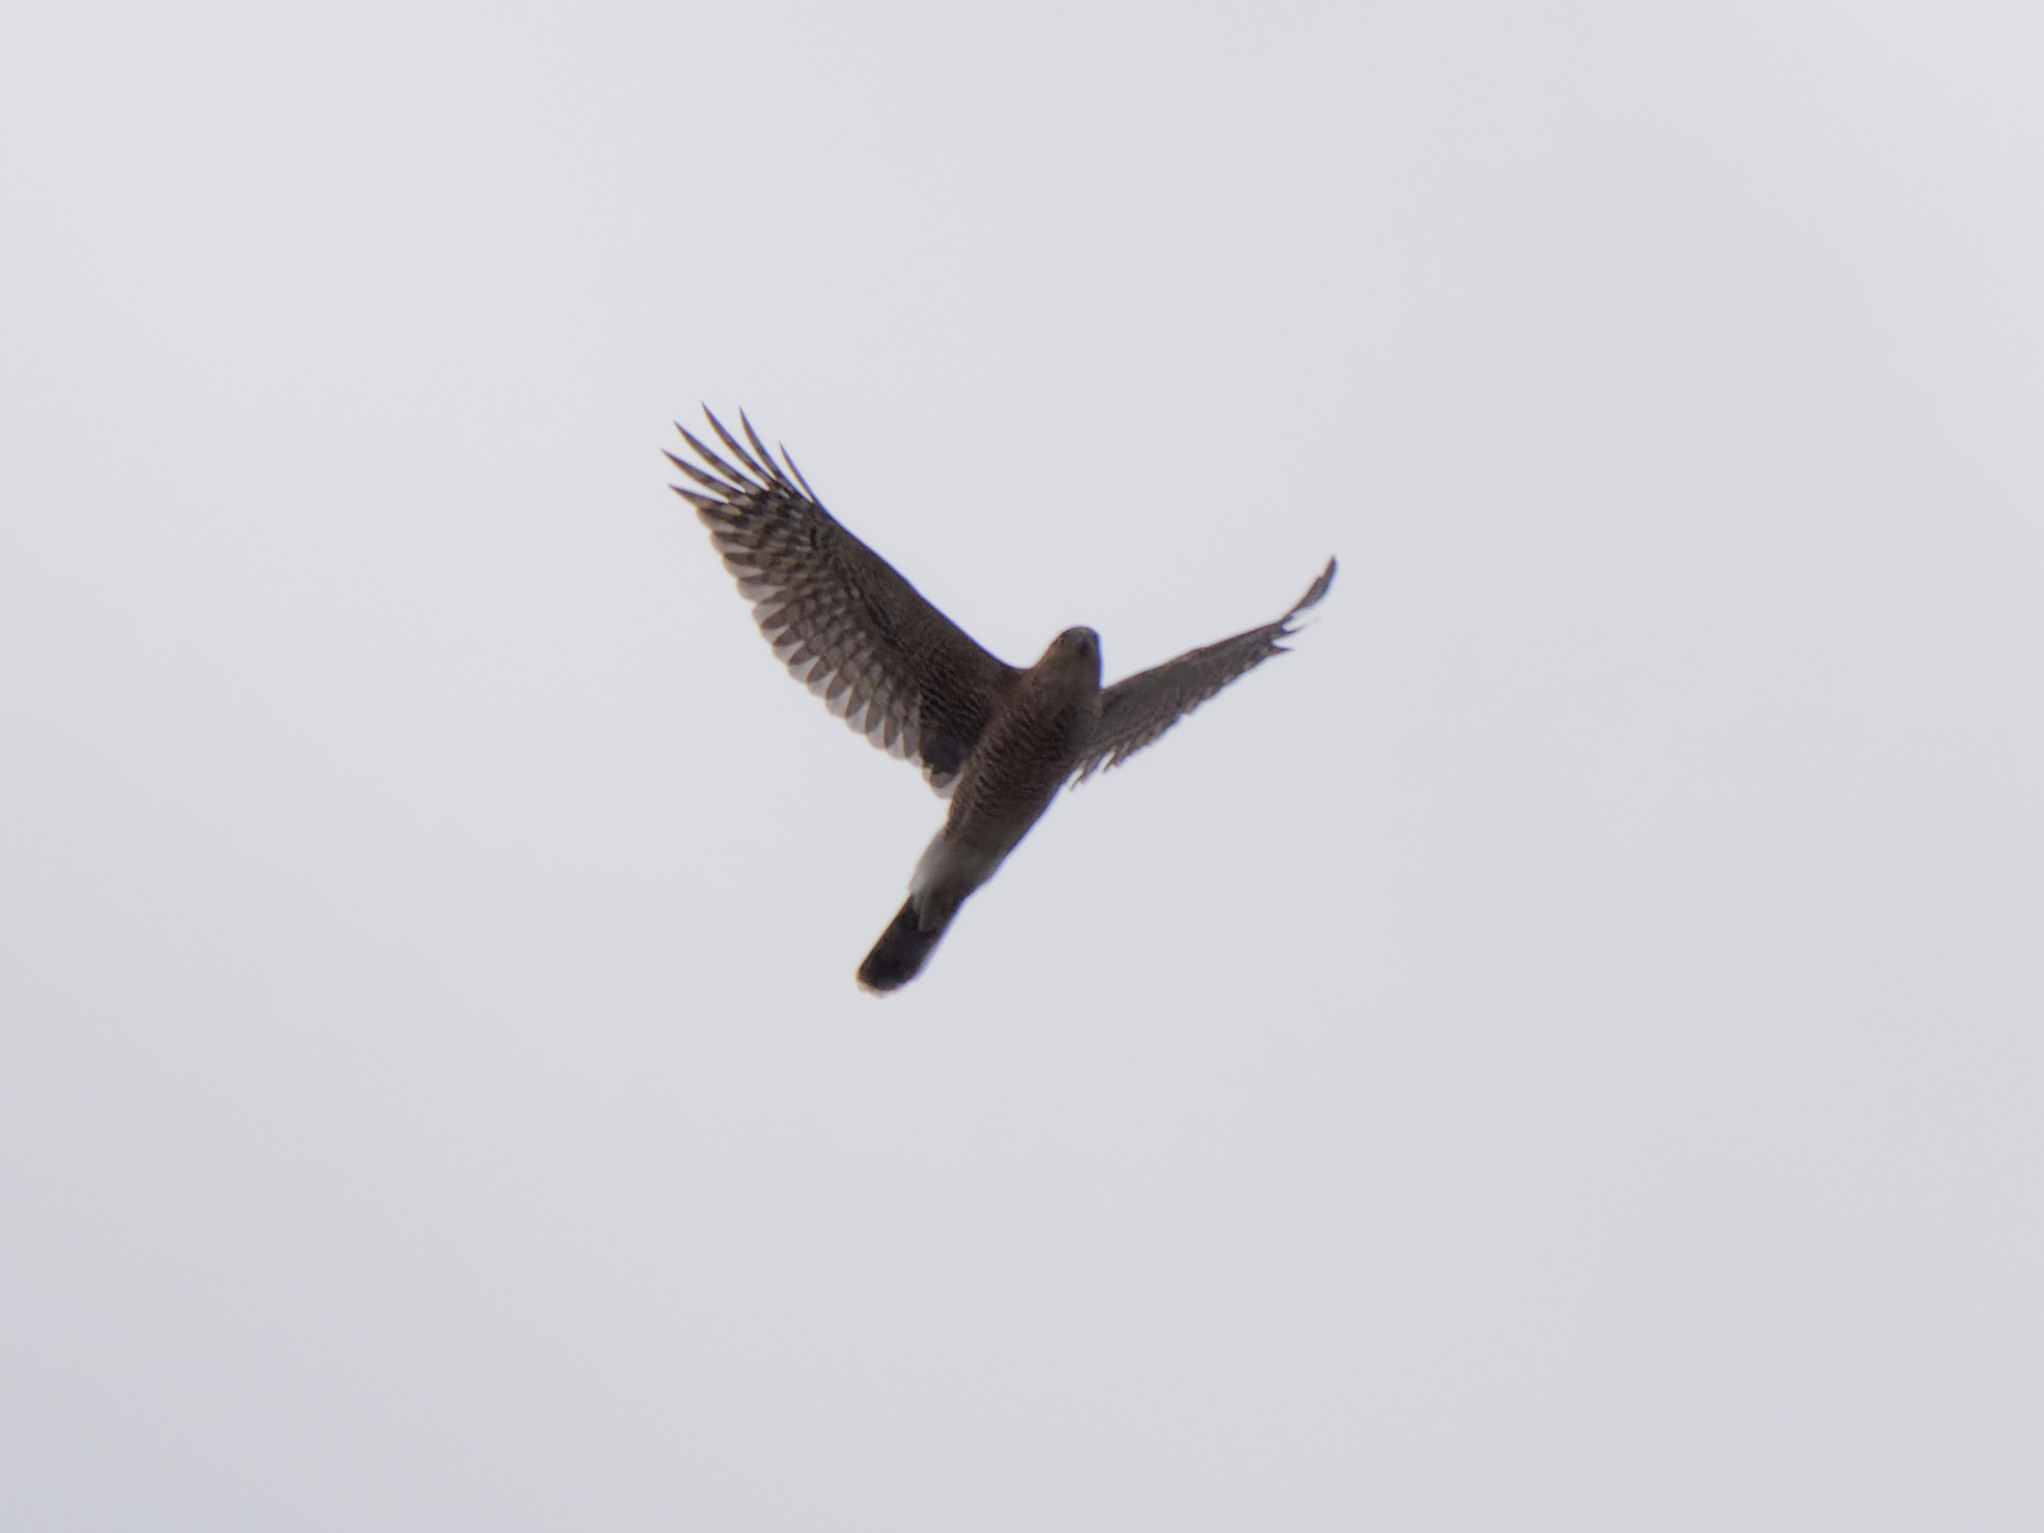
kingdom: Animalia
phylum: Chordata
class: Aves
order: Accipitriformes
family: Accipitridae
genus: Accipiter
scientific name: Accipiter cooperii
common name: Cooper's hawk
